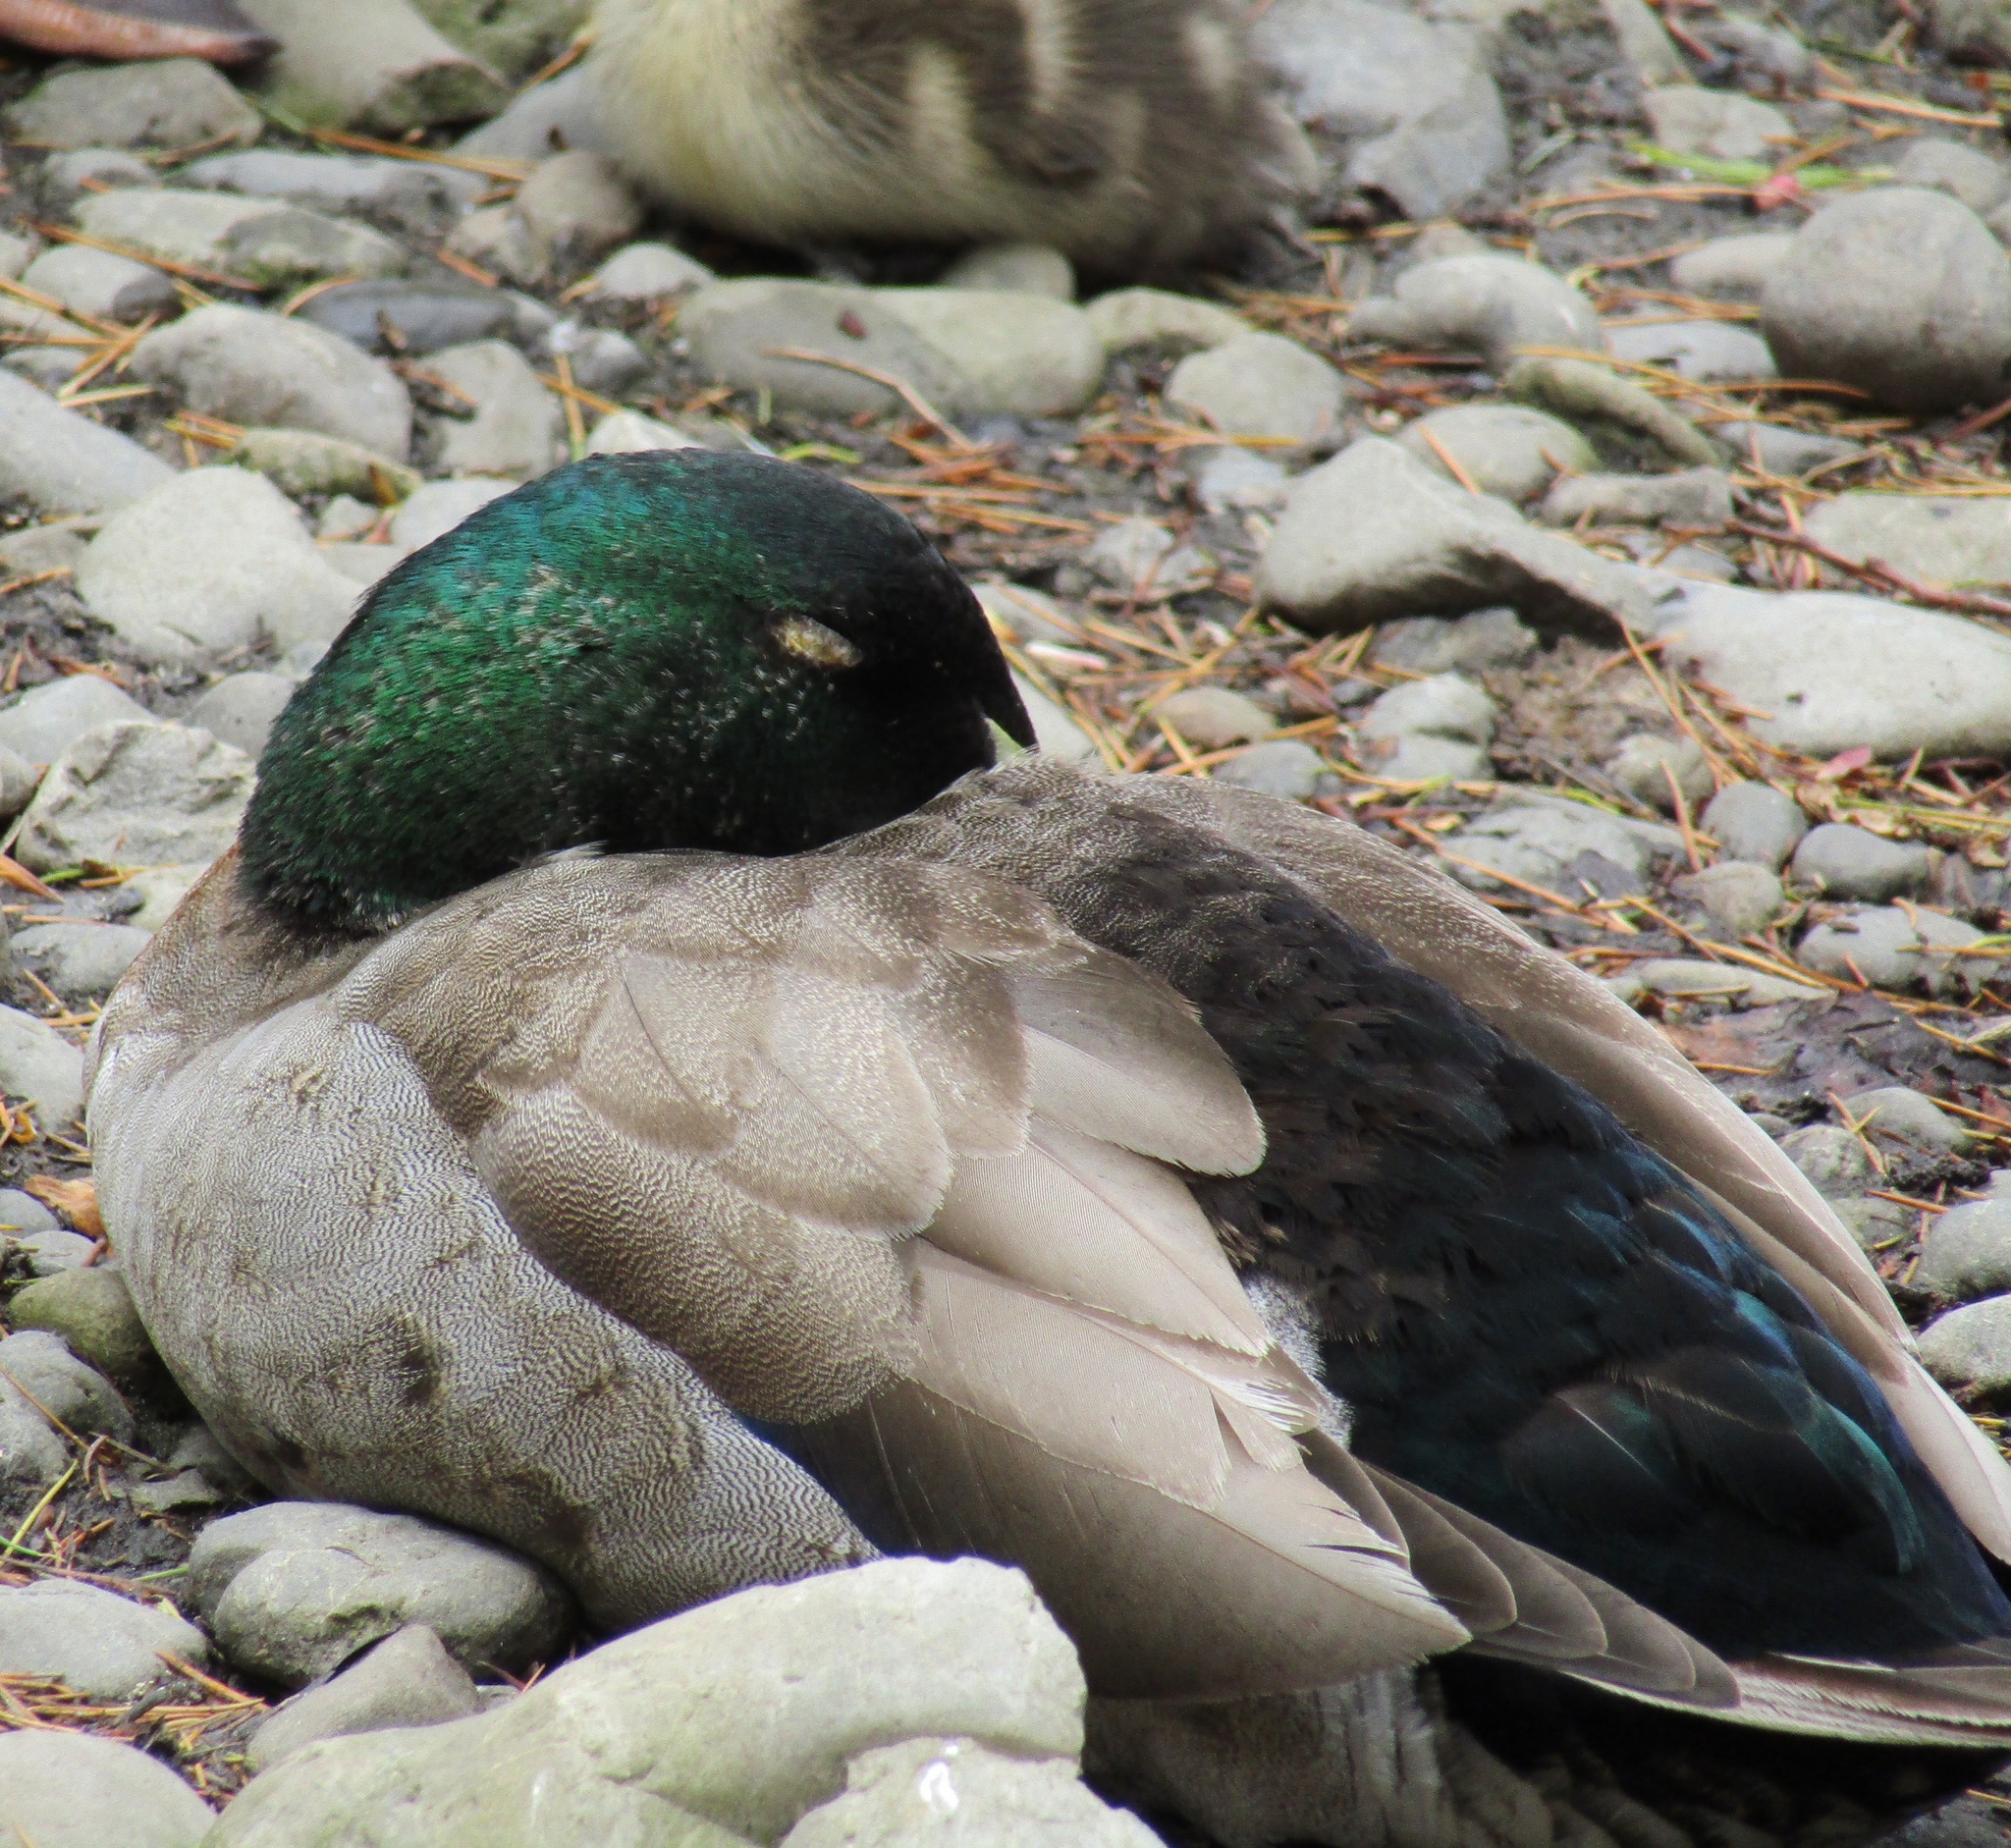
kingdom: Animalia
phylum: Chordata
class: Aves
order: Anseriformes
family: Anatidae
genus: Anas
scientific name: Anas platyrhynchos
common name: Mallard
